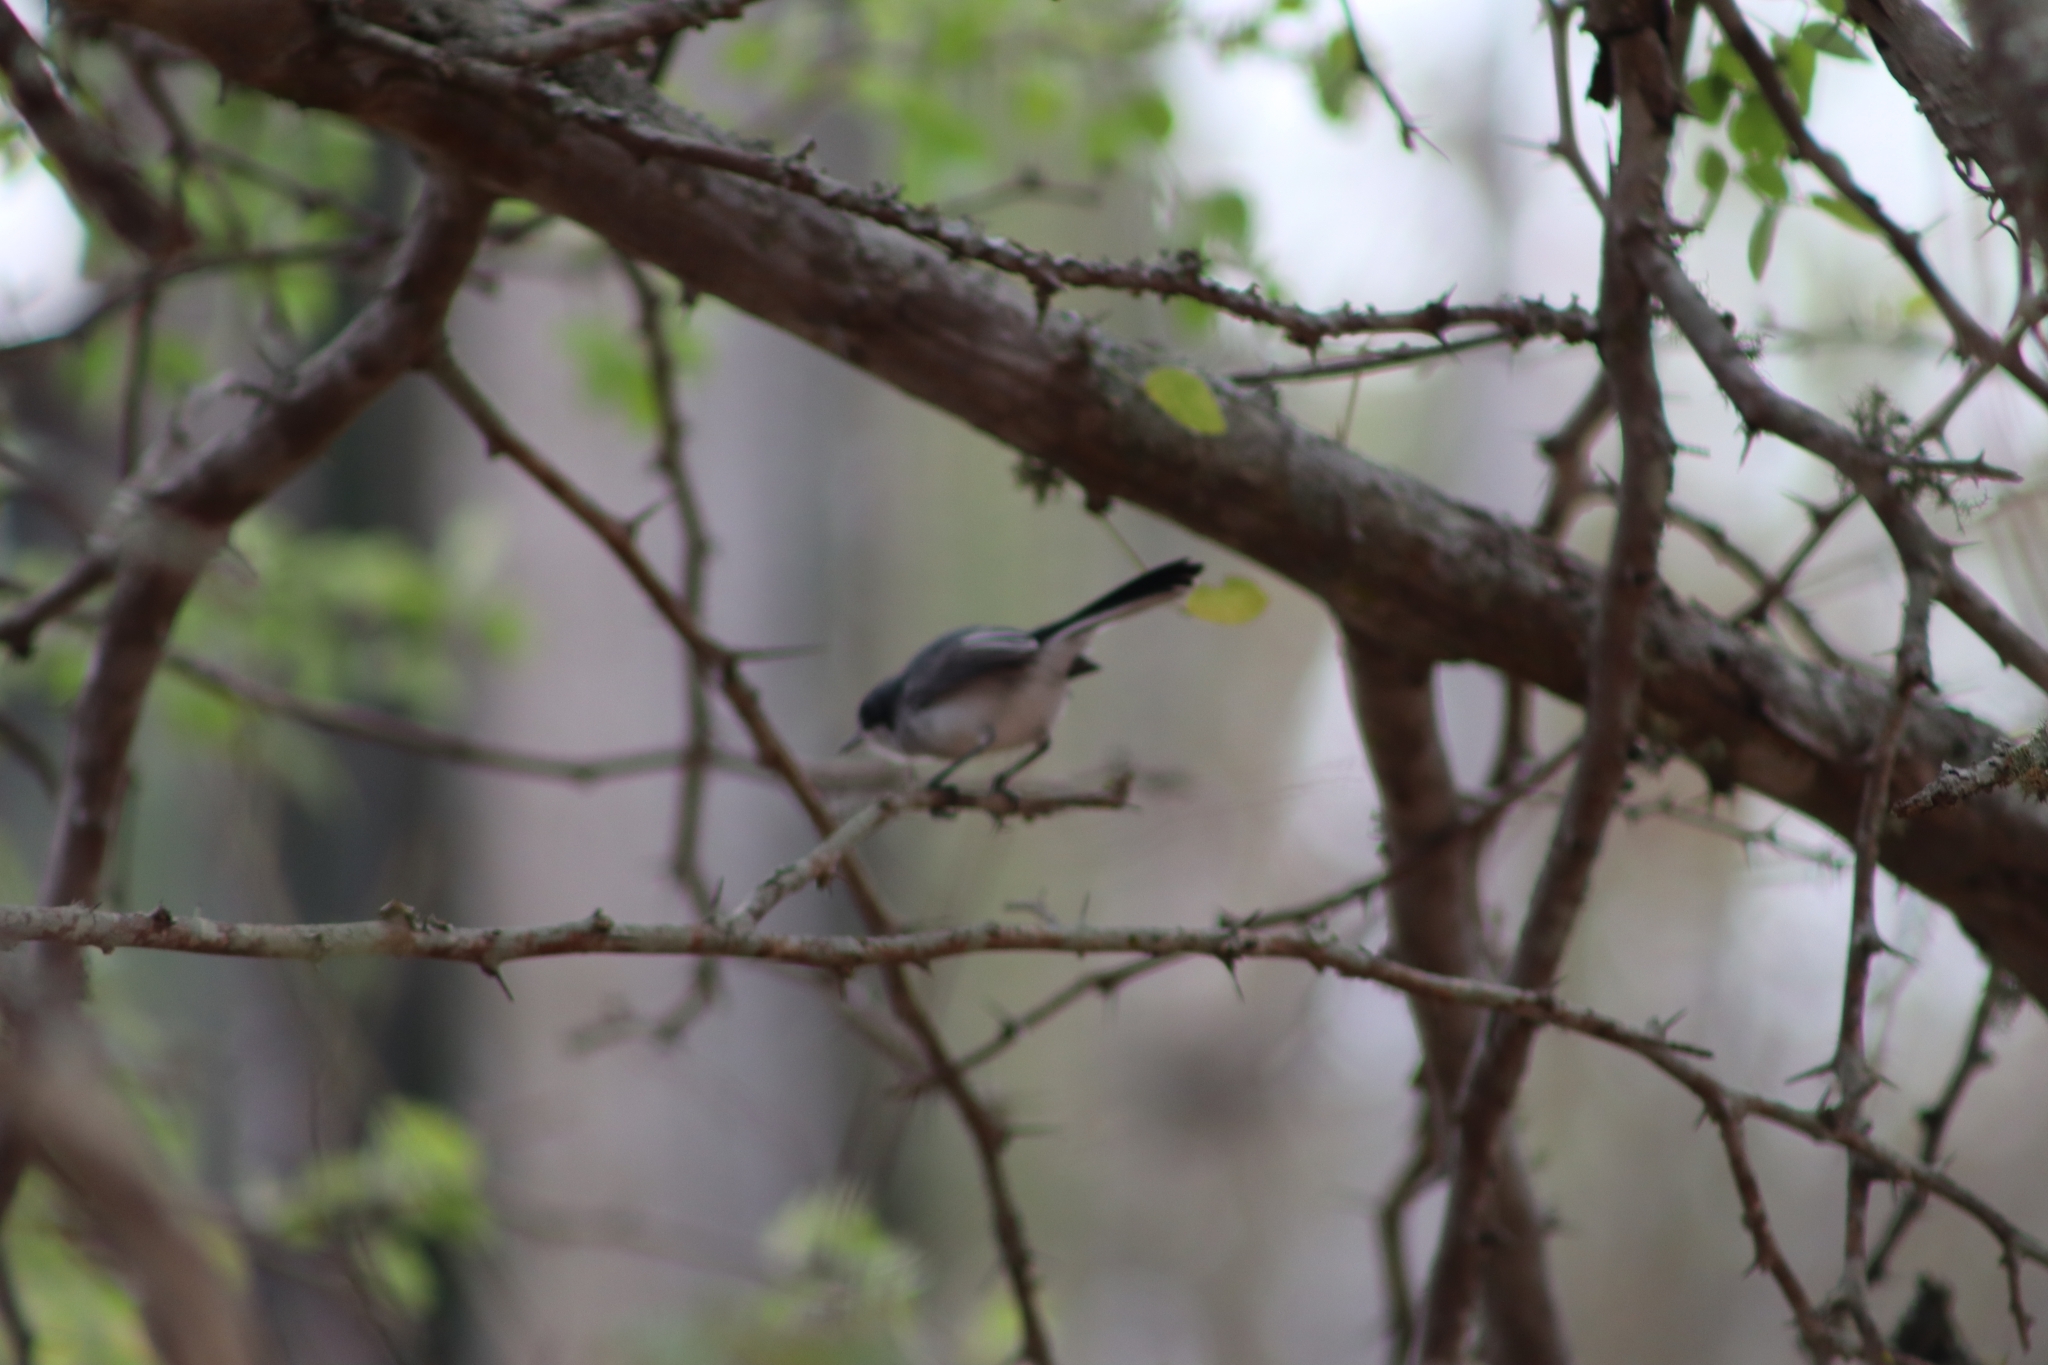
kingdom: Animalia
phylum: Chordata
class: Aves
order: Passeriformes
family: Polioptilidae
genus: Polioptila
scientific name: Polioptila plumbea
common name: Tropical gnatcatcher
